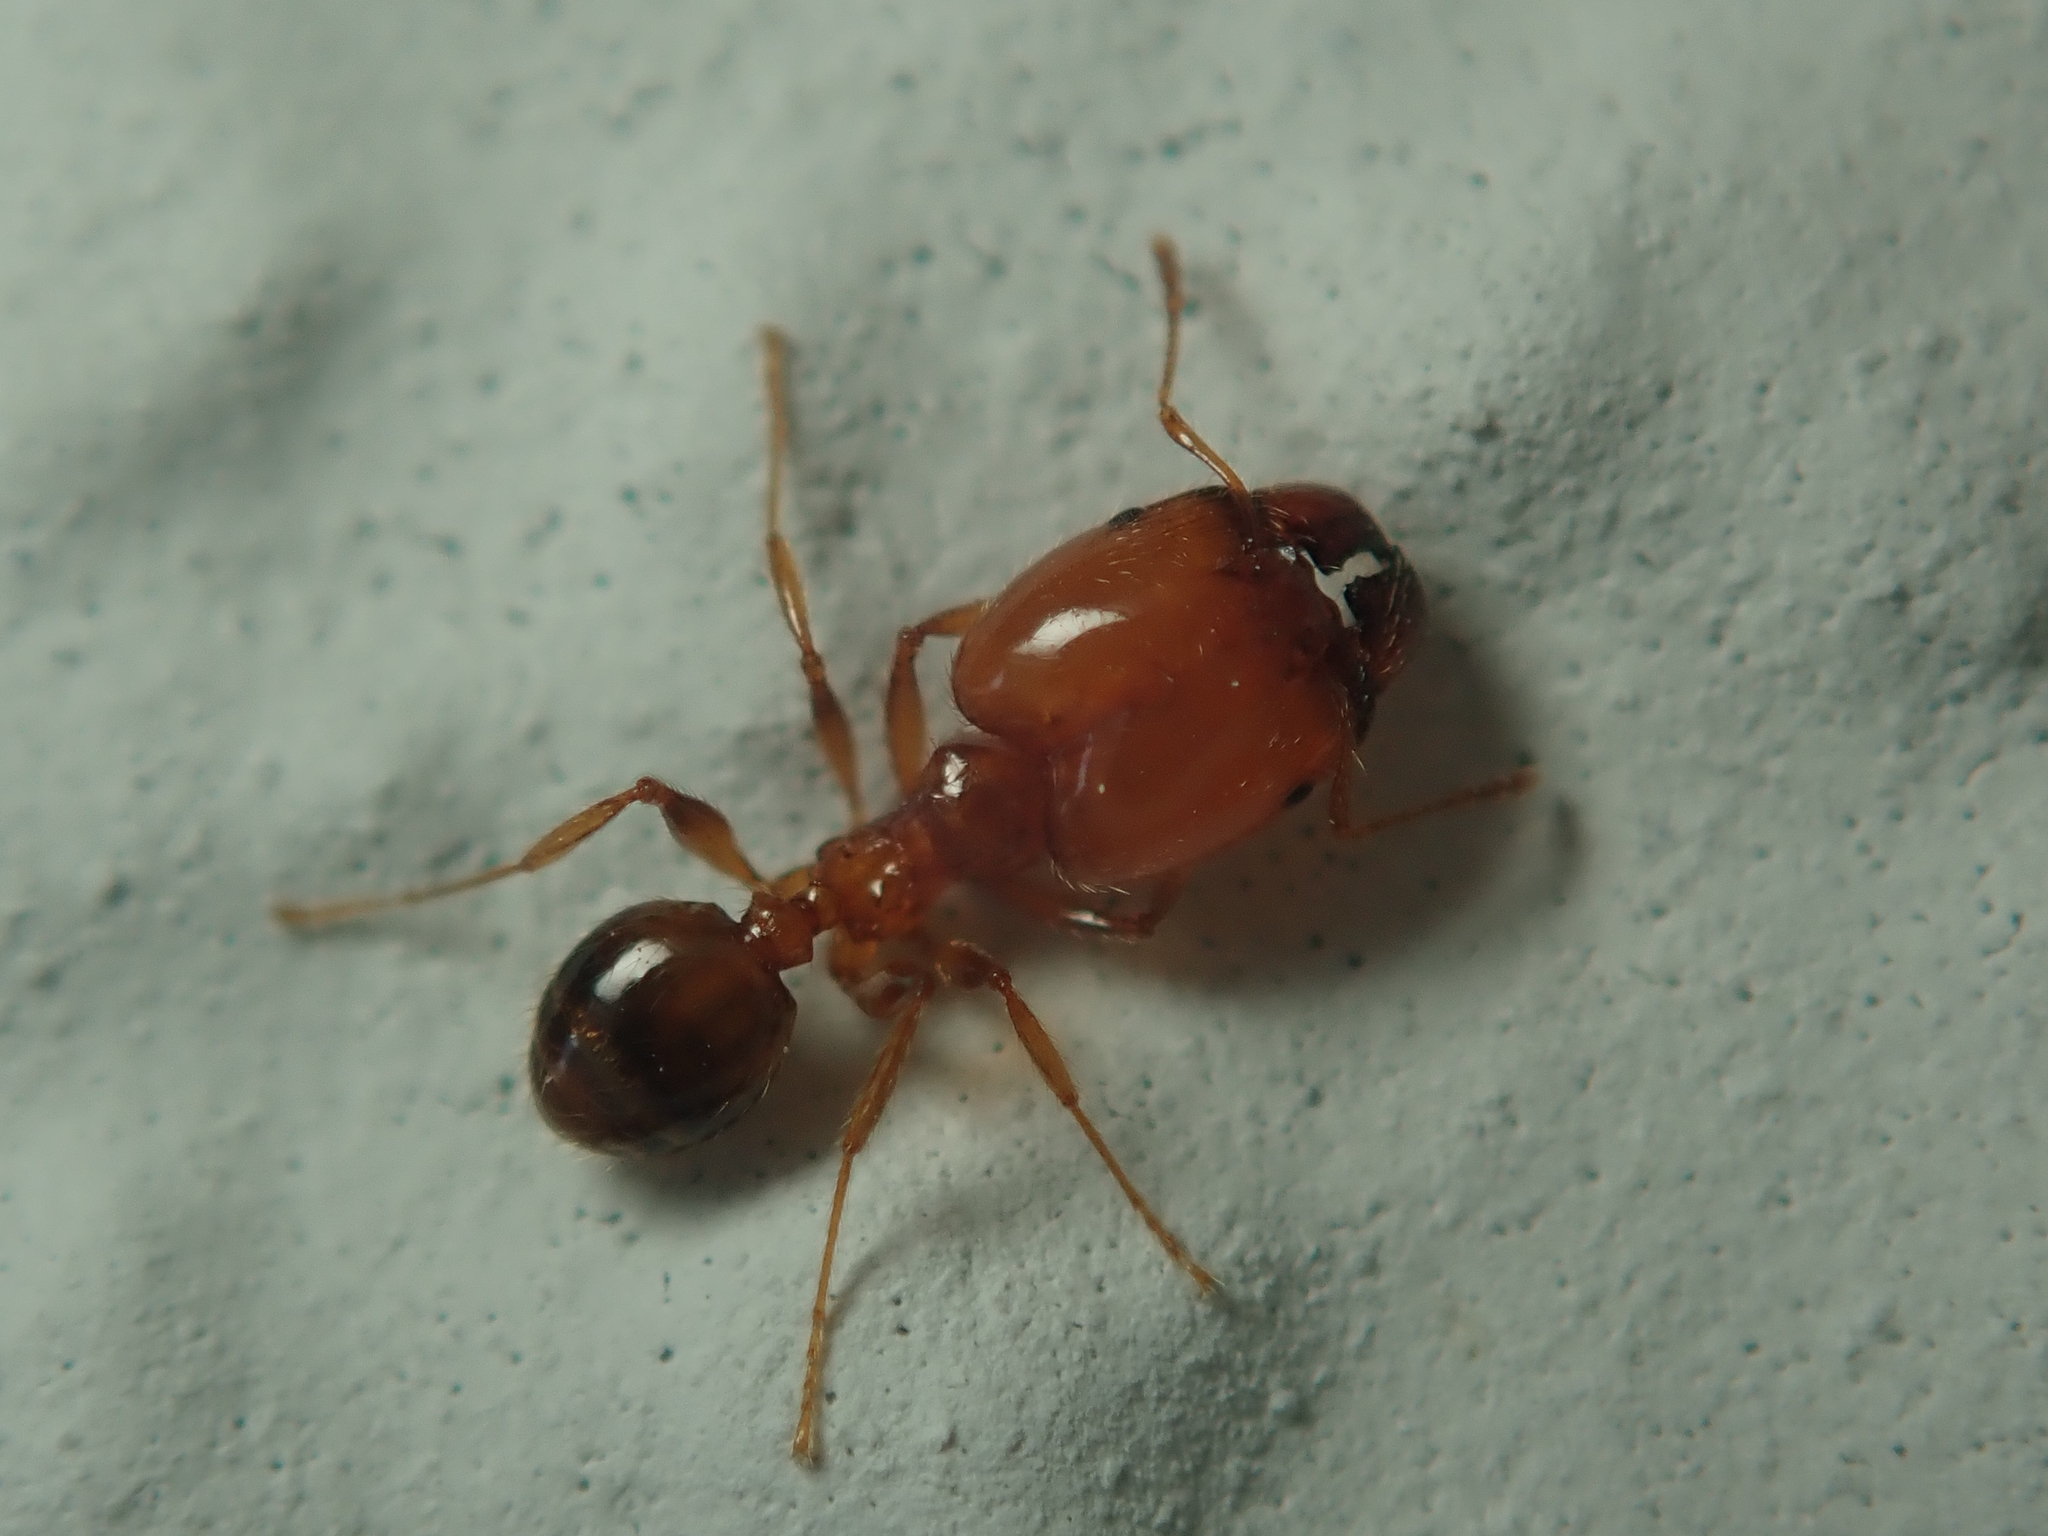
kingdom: Animalia
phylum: Arthropoda
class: Insecta
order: Hymenoptera
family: Formicidae
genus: Pheidole
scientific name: Pheidole pallidula
